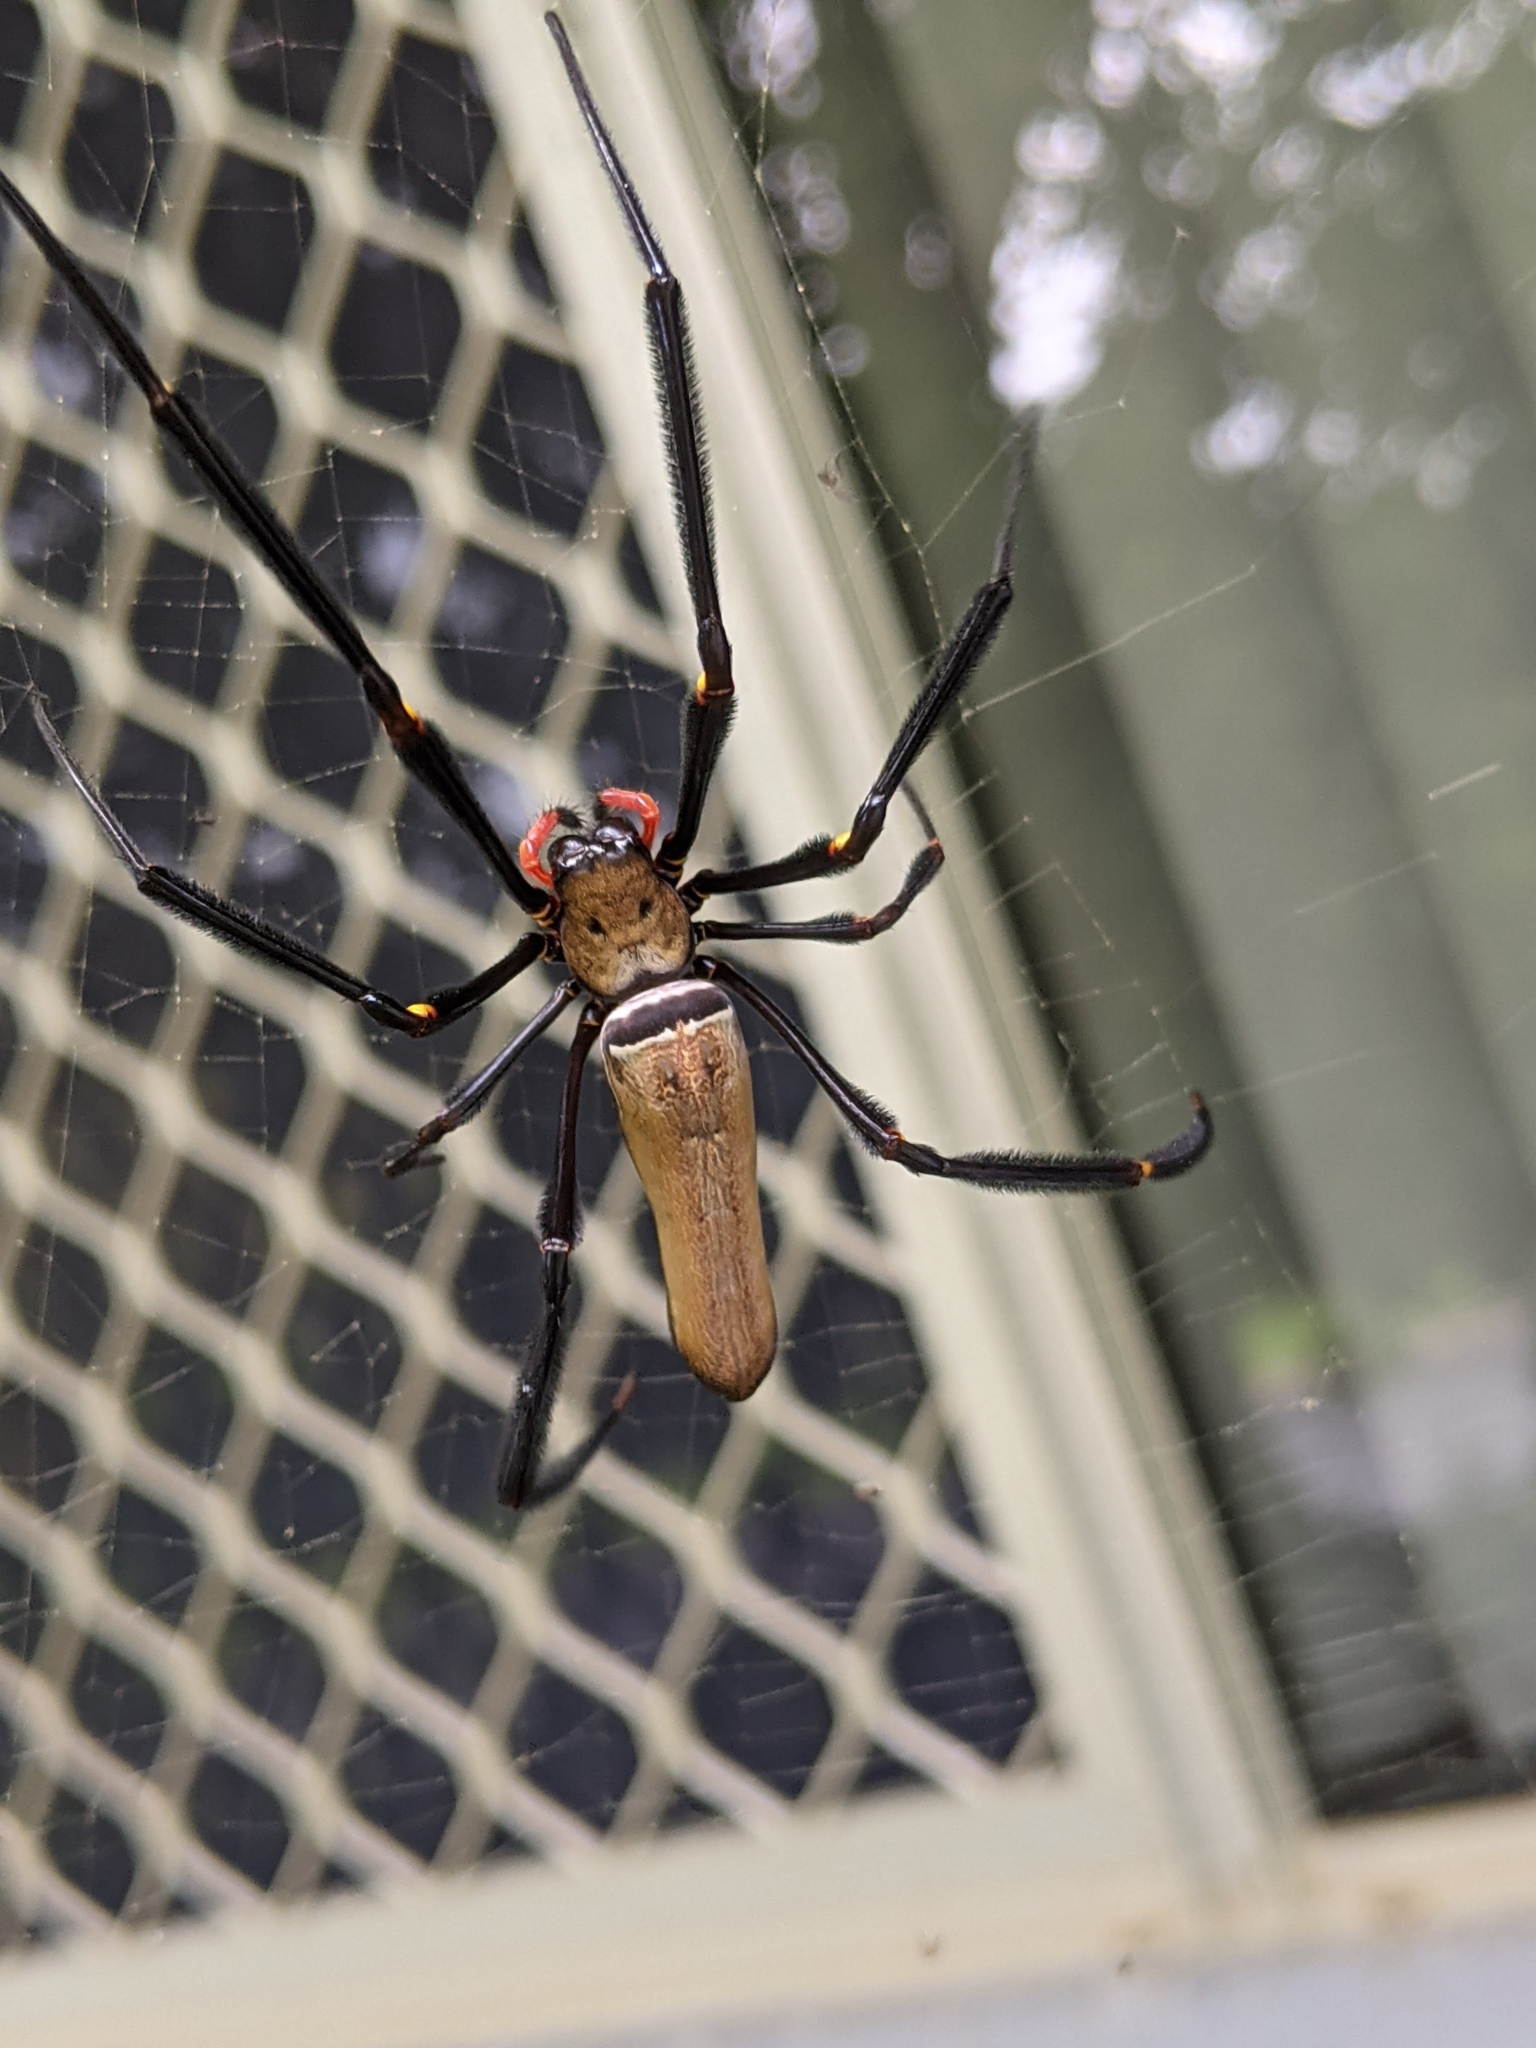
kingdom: Animalia
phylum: Arthropoda
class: Arachnida
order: Araneae
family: Araneidae
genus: Nephila
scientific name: Nephila pilipes
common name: Giant golden orb weaver
